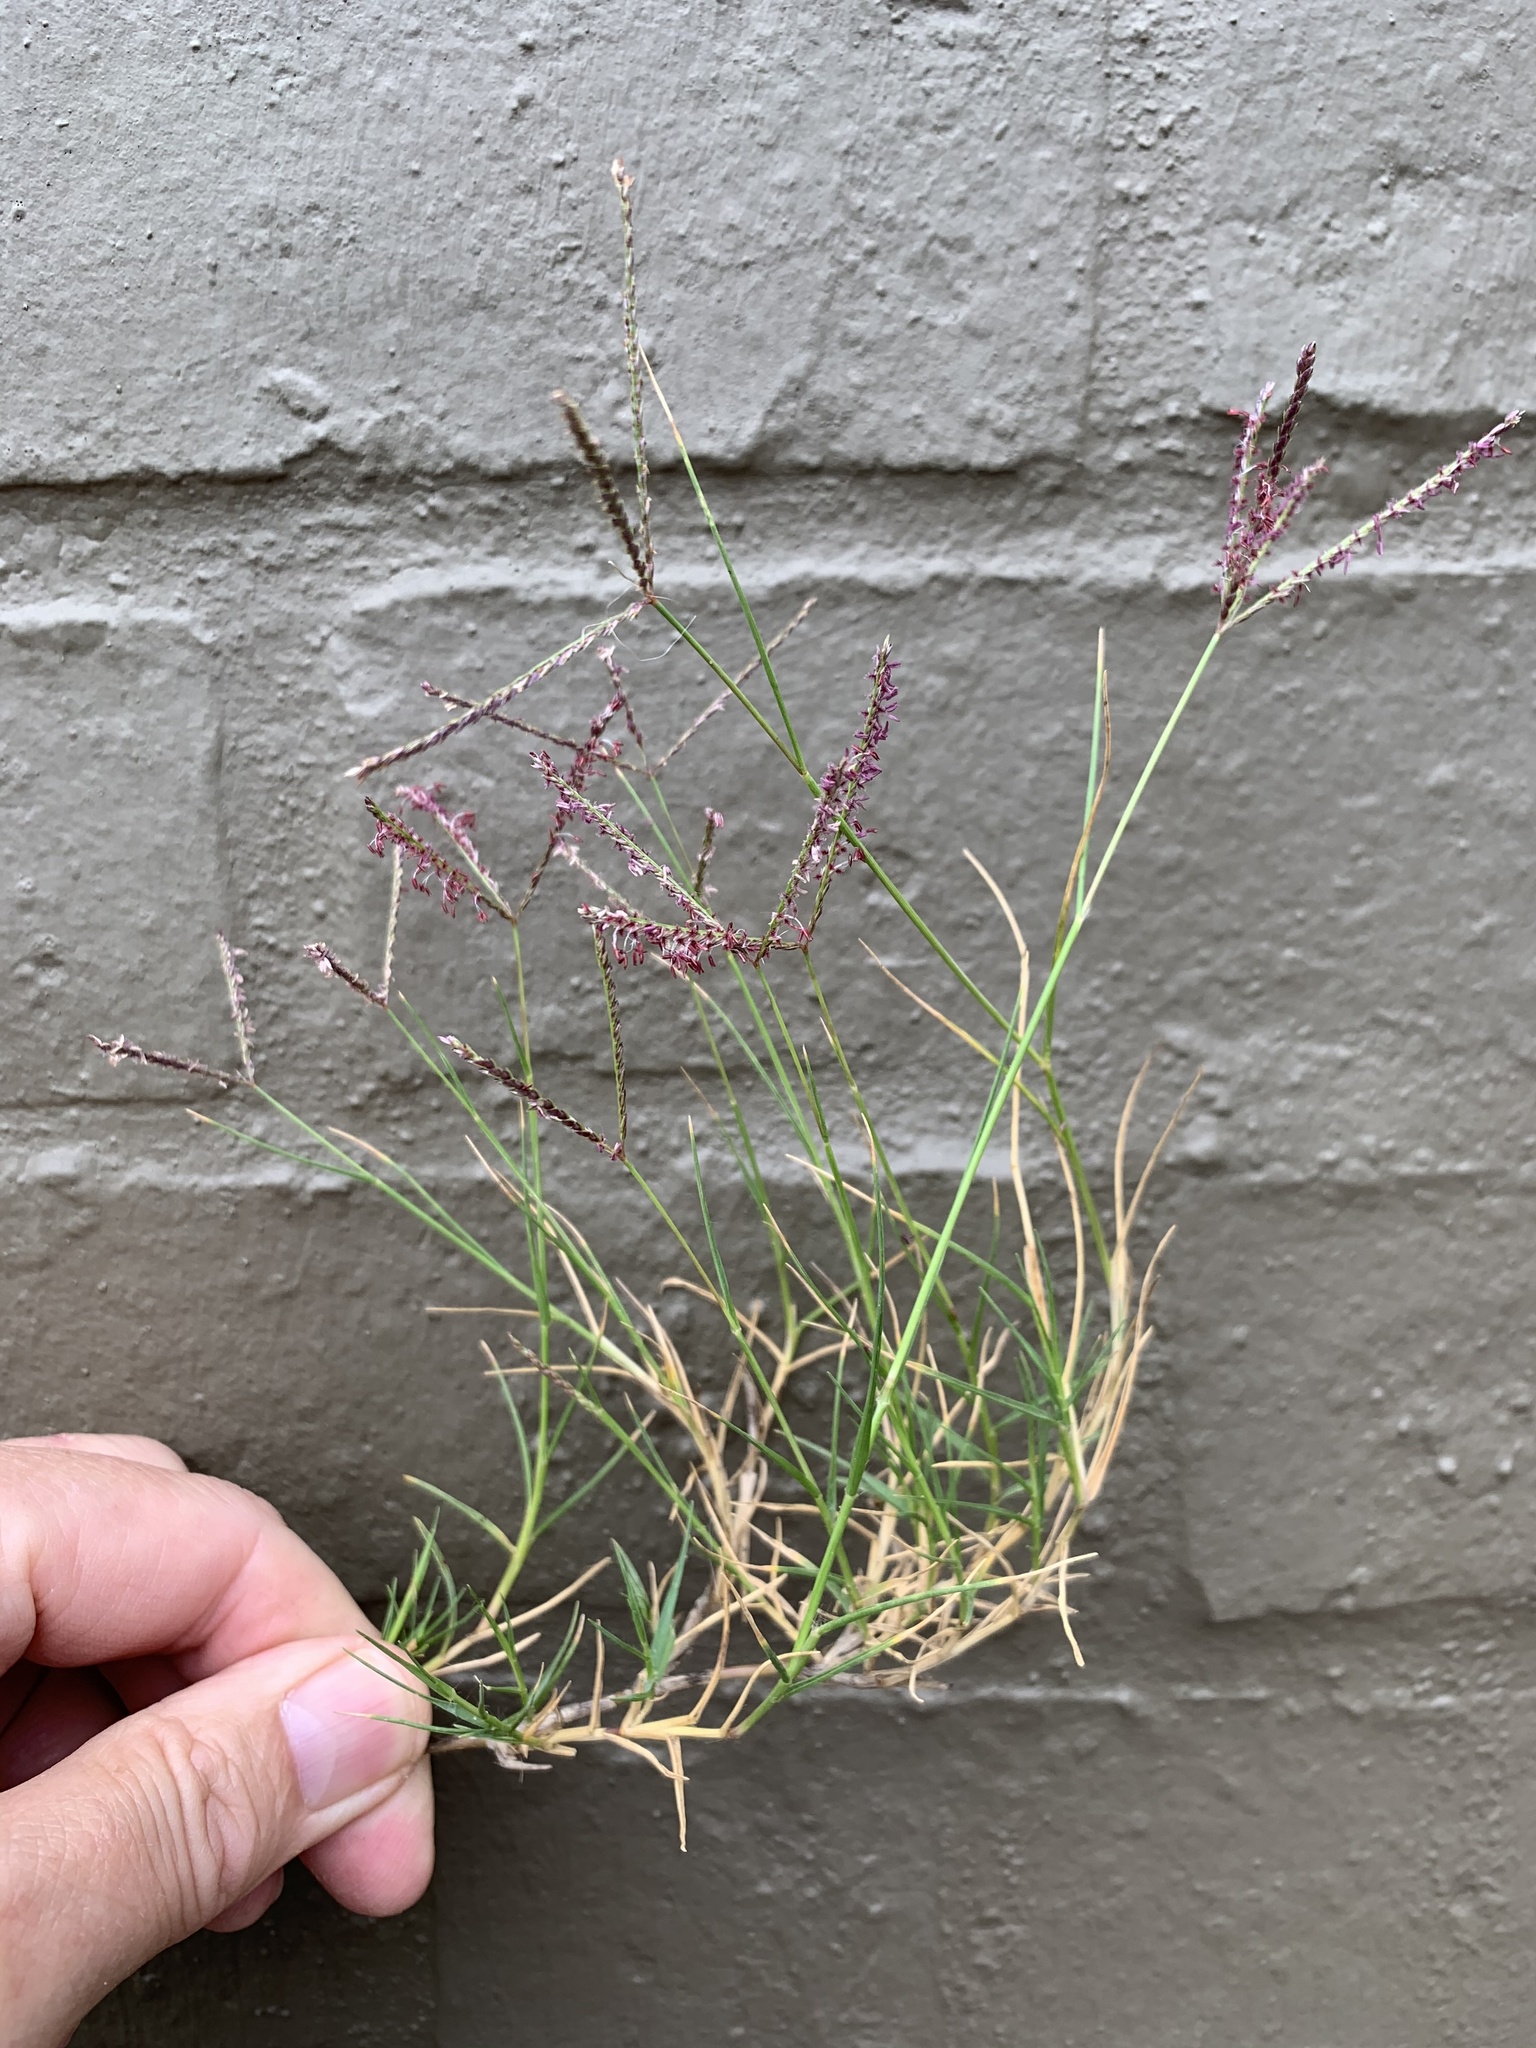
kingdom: Plantae
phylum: Tracheophyta
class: Liliopsida
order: Poales
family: Poaceae
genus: Cynodon
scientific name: Cynodon dactylon
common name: Bermuda grass
